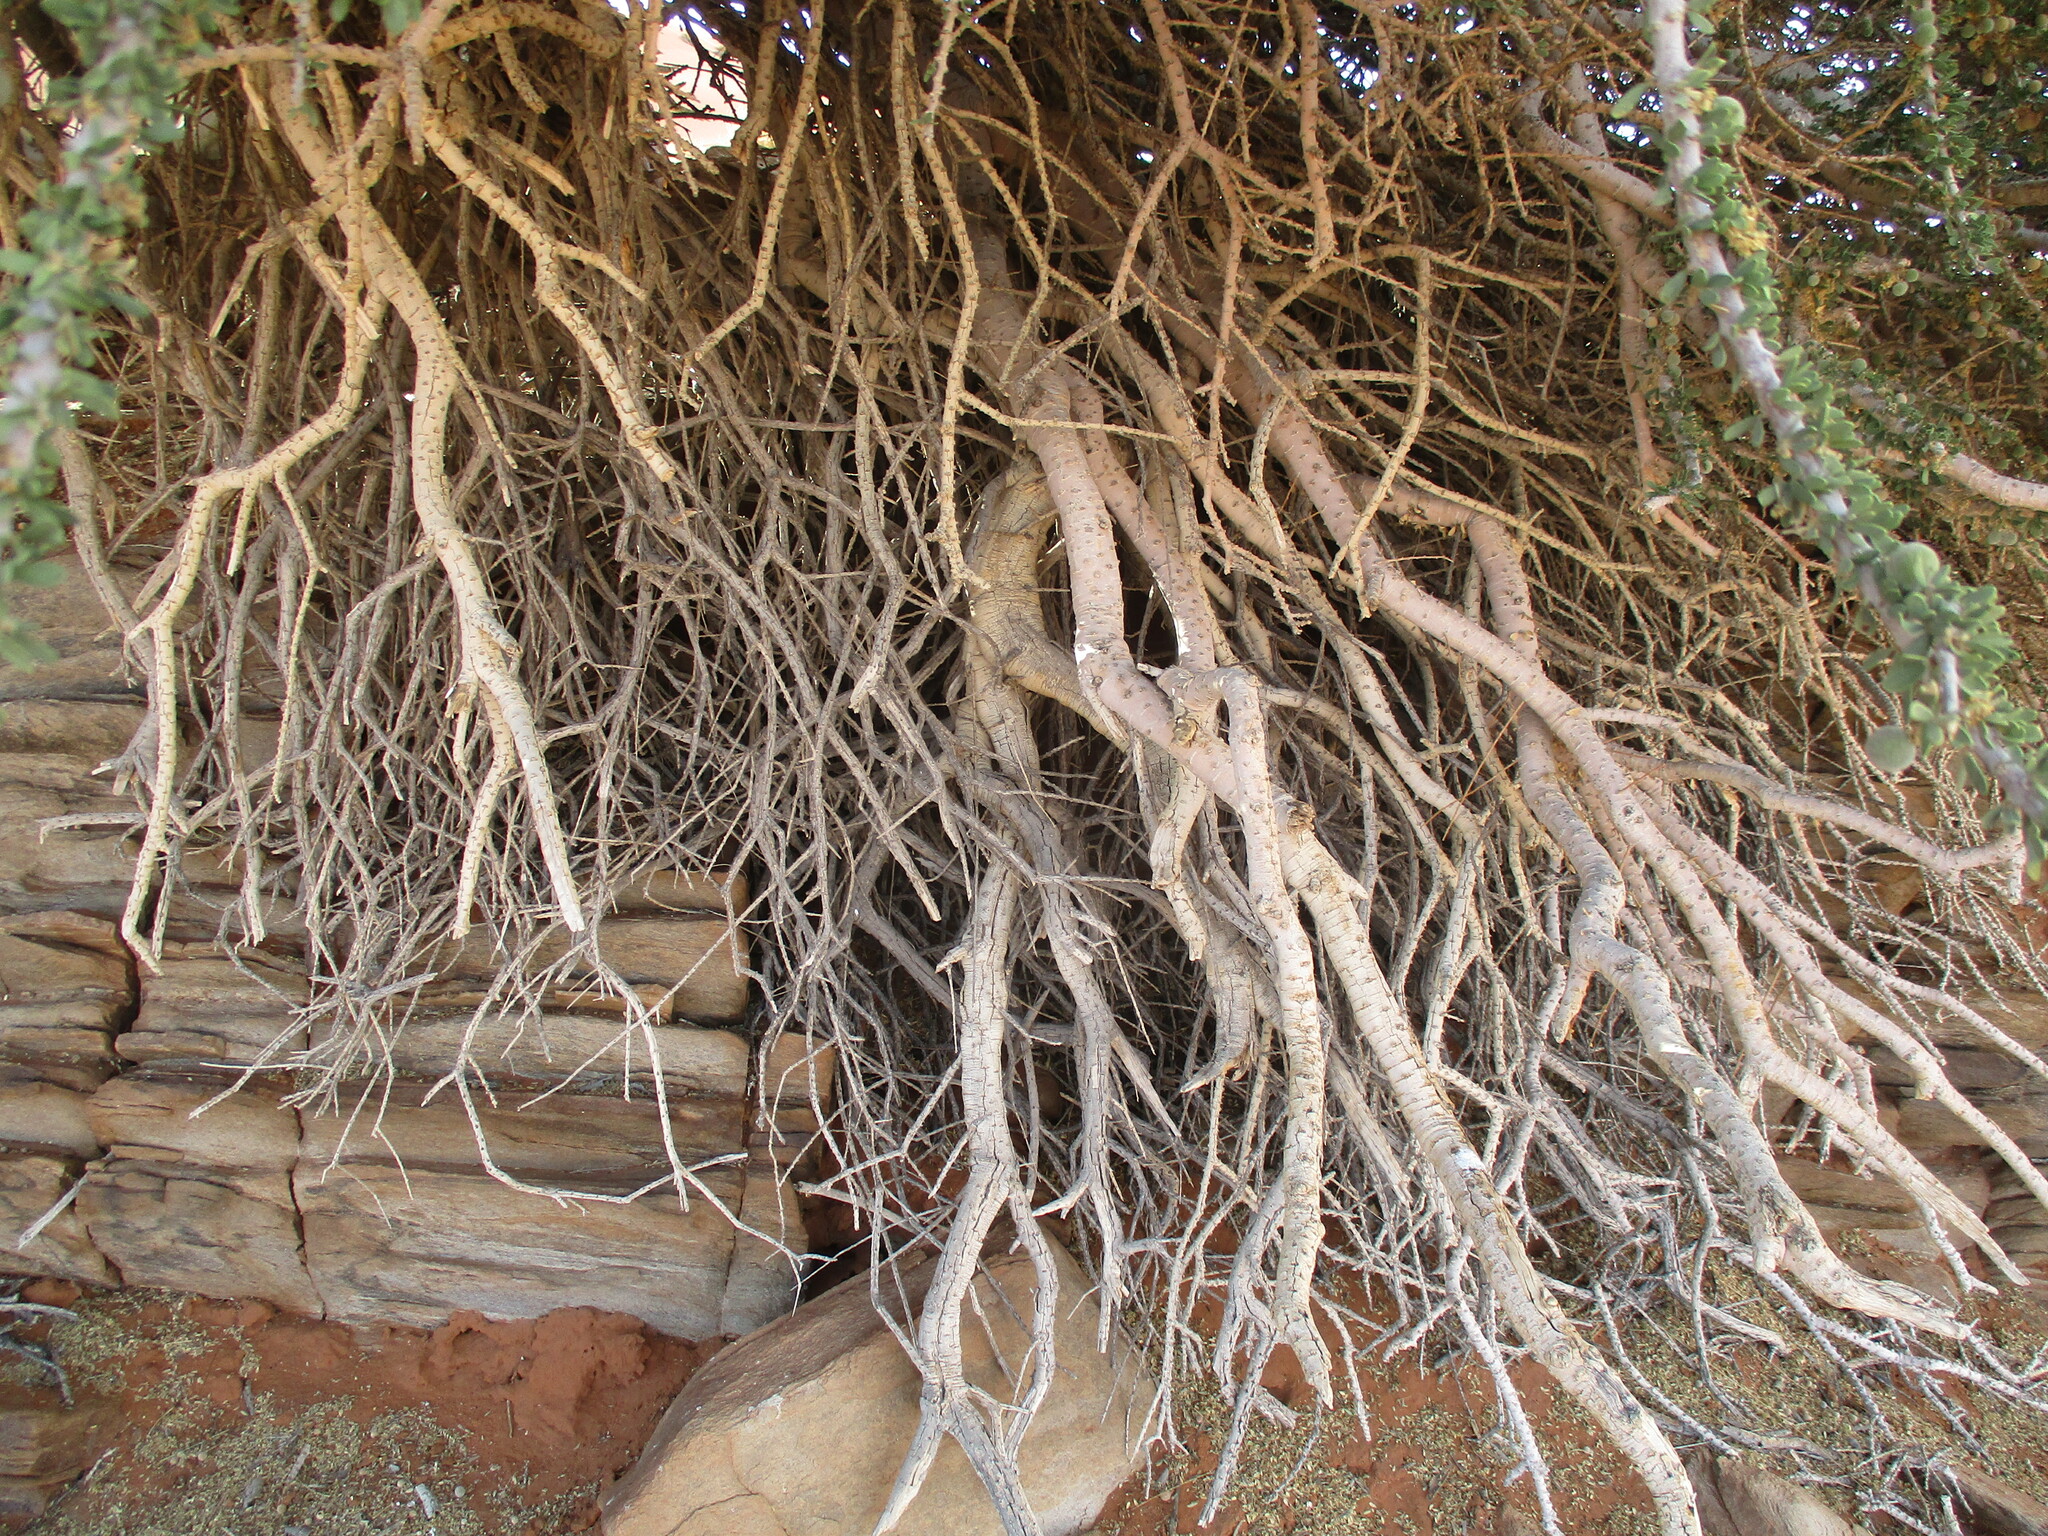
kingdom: Plantae
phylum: Tracheophyta
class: Magnoliopsida
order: Brassicales
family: Capparaceae
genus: Boscia
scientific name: Boscia foetida
